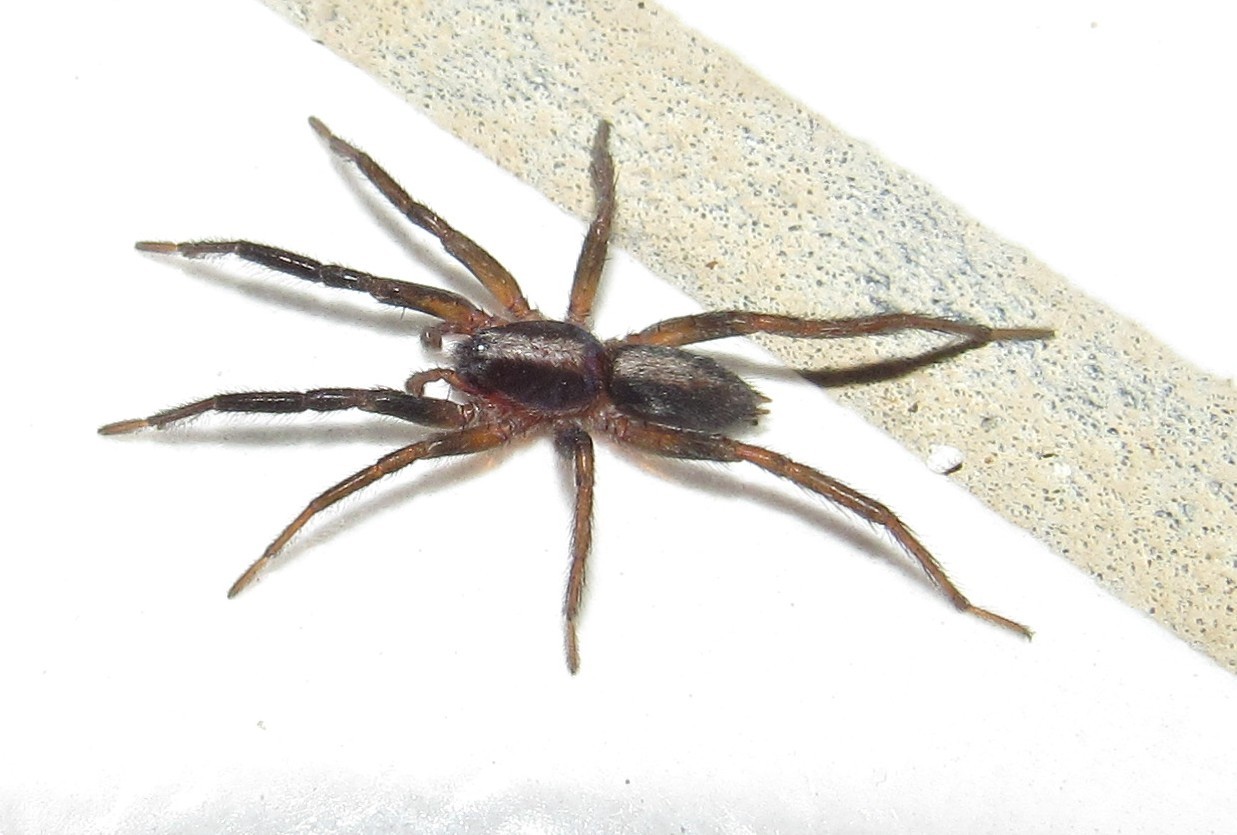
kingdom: Animalia
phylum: Arthropoda
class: Arachnida
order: Araneae
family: Miturgidae
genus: Teminius
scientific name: Teminius insularis
